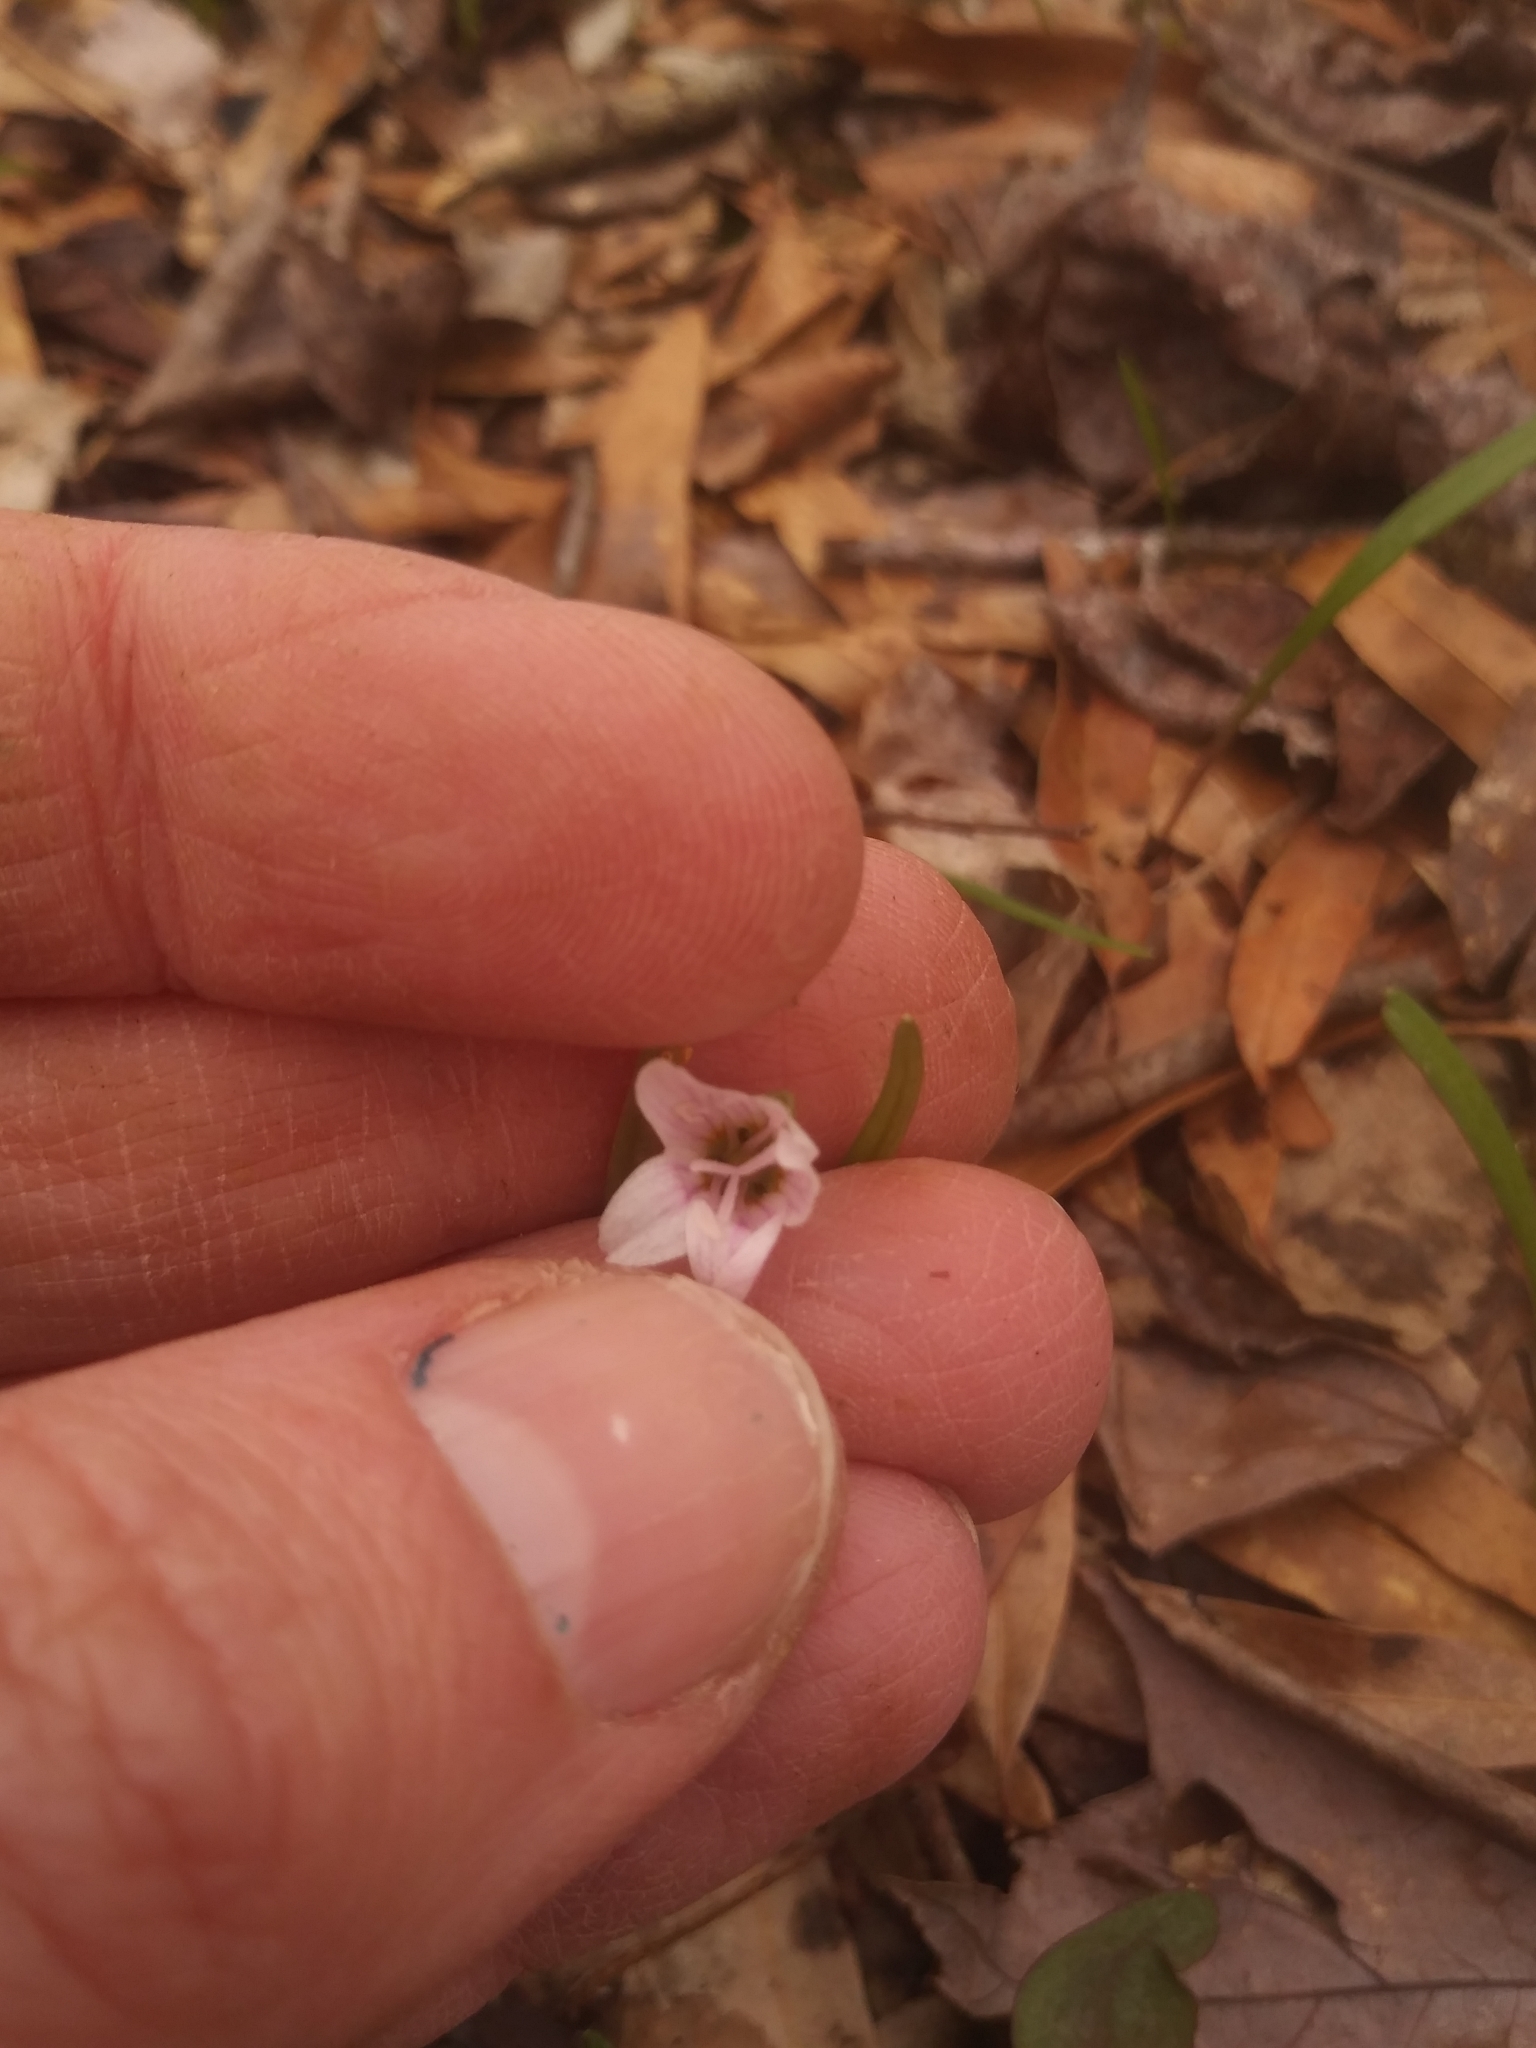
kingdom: Plantae
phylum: Tracheophyta
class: Magnoliopsida
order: Caryophyllales
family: Montiaceae
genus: Claytonia
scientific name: Claytonia virginica
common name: Virginia springbeauty
